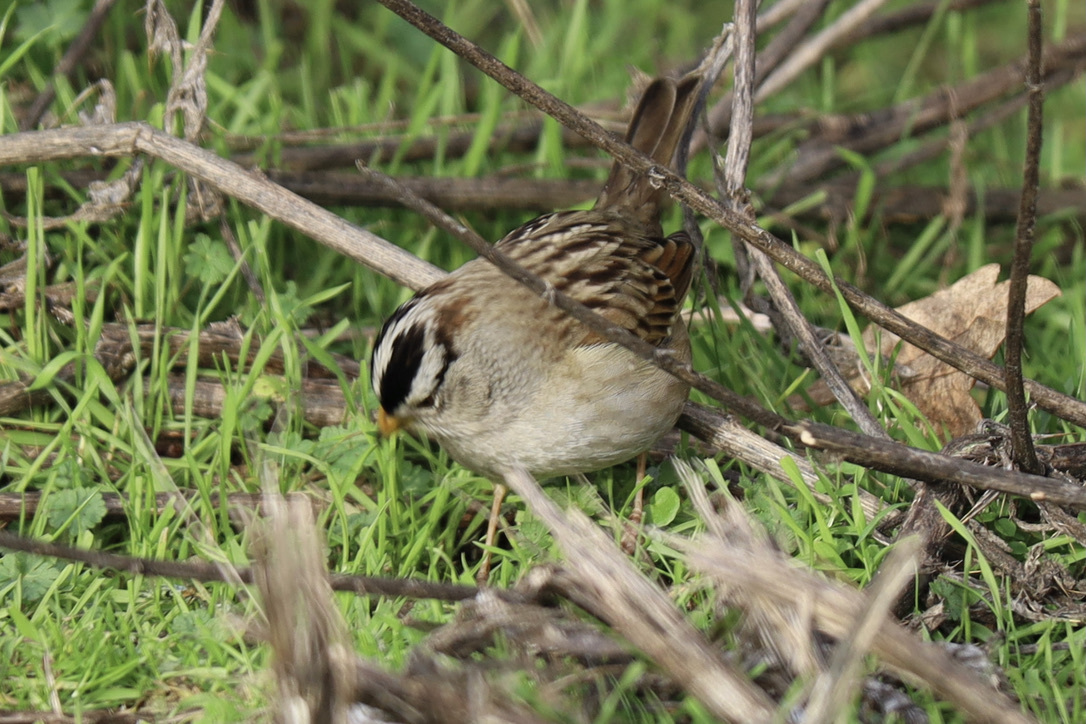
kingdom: Animalia
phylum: Chordata
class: Aves
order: Passeriformes
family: Passerellidae
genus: Zonotrichia
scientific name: Zonotrichia leucophrys
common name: White-crowned sparrow
